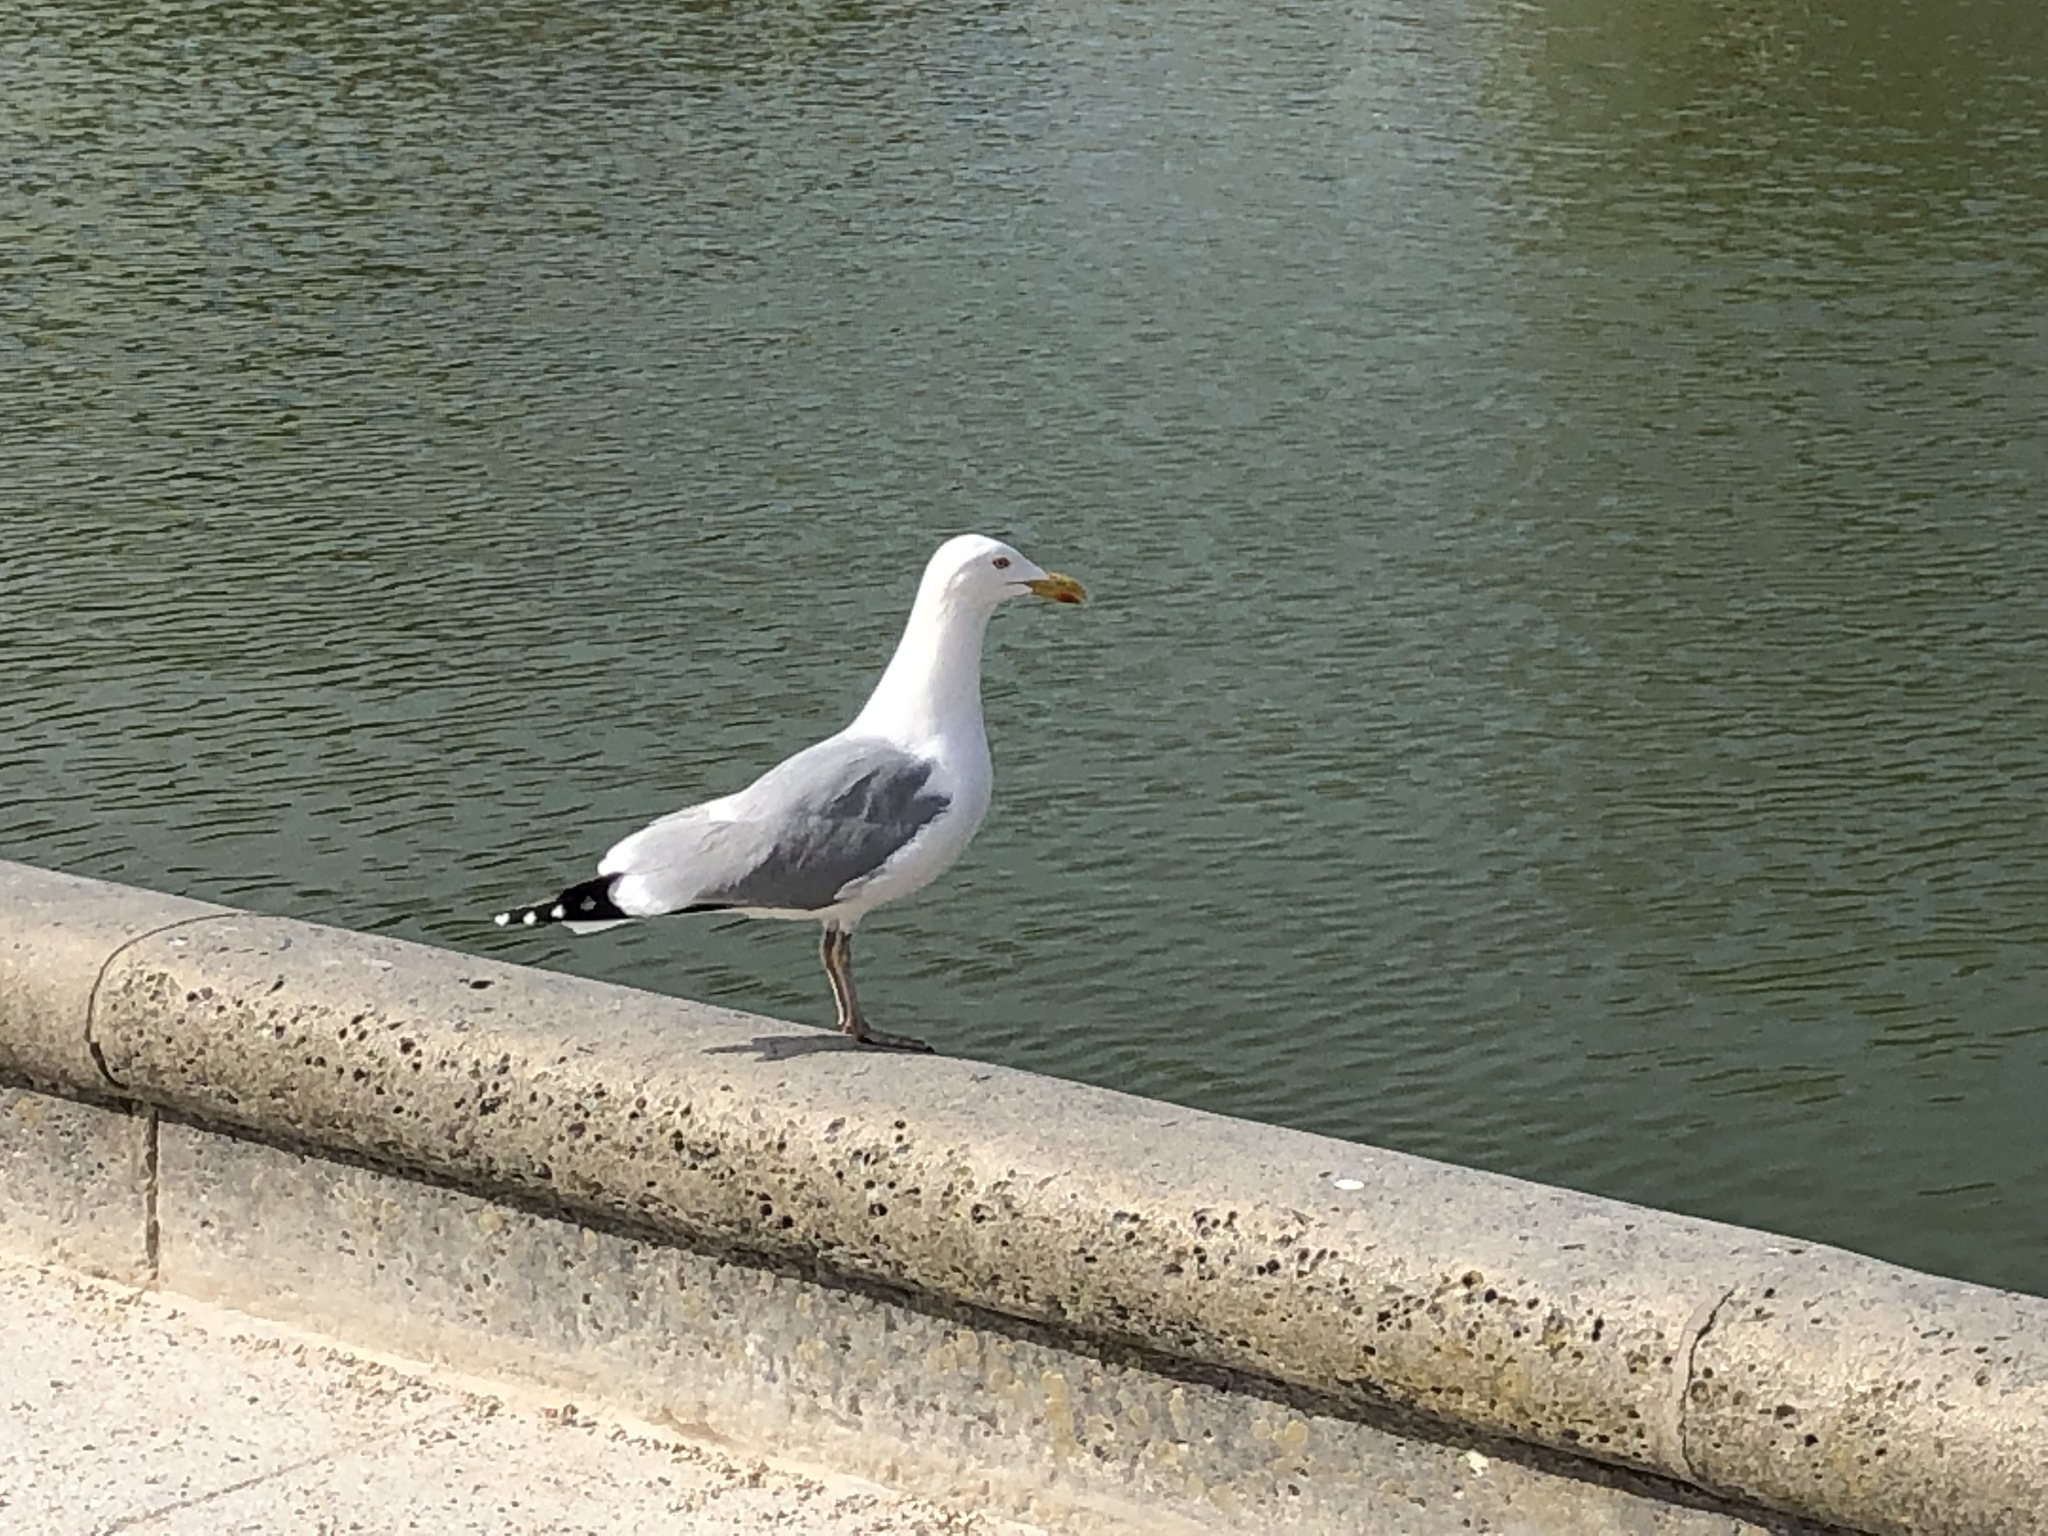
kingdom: Animalia
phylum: Chordata
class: Aves
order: Charadriiformes
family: Laridae
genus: Larus
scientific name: Larus argentatus
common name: Herring gull
